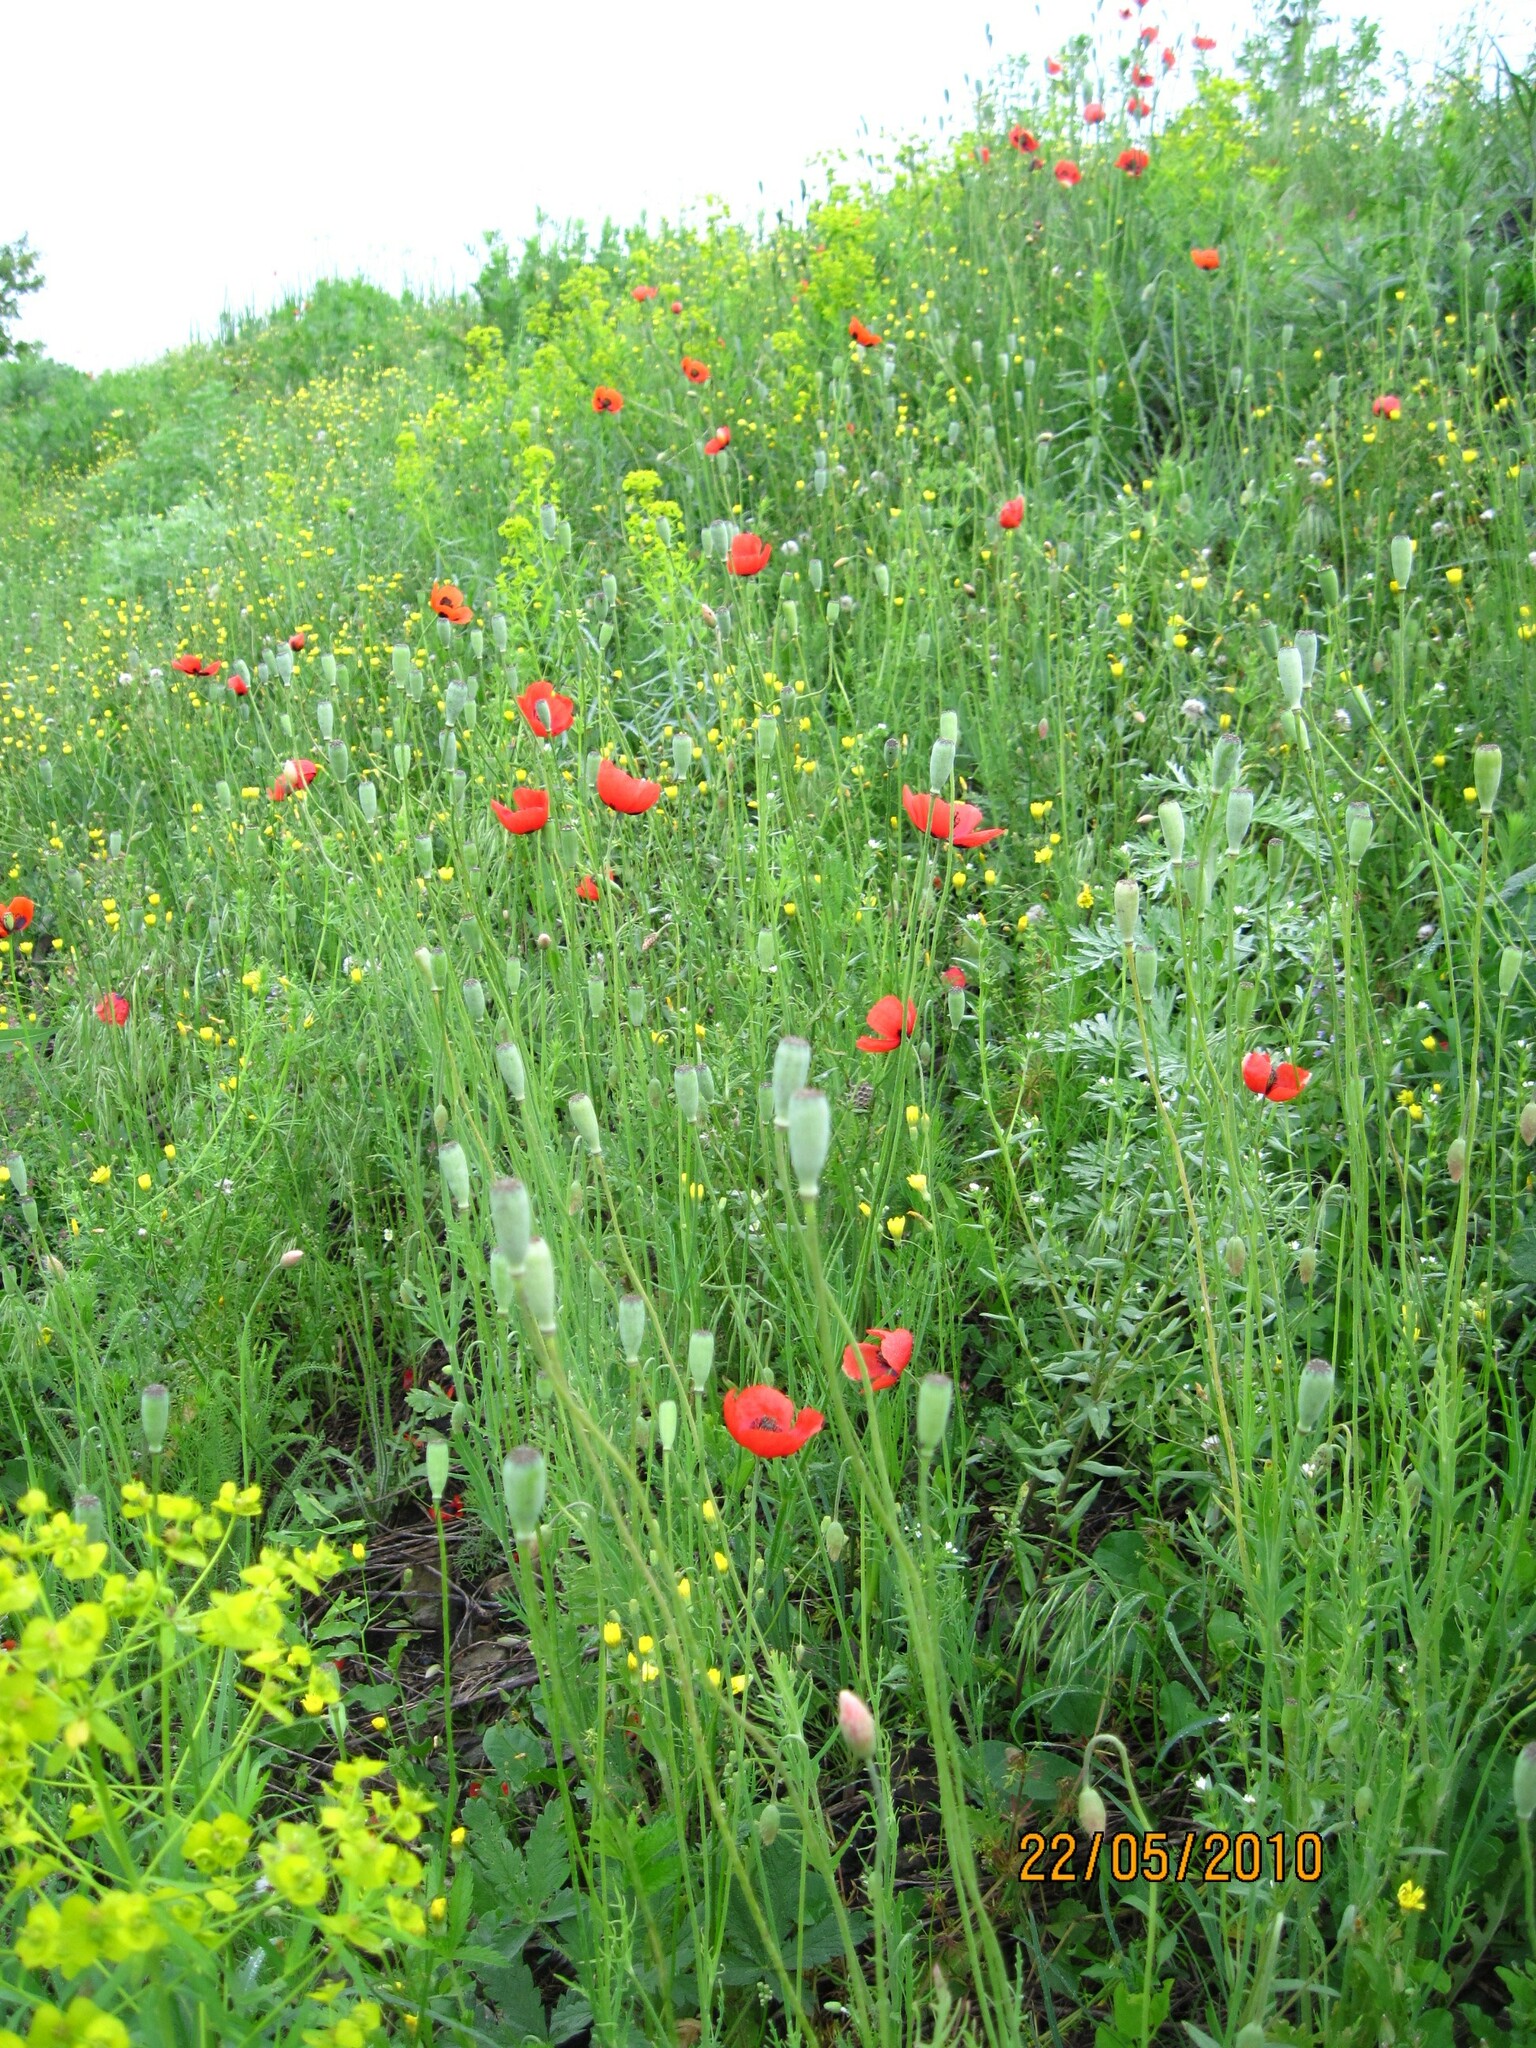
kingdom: Plantae
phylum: Tracheophyta
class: Magnoliopsida
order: Ranunculales
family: Papaveraceae
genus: Papaver
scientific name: Papaver dubium
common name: Long-headed poppy
